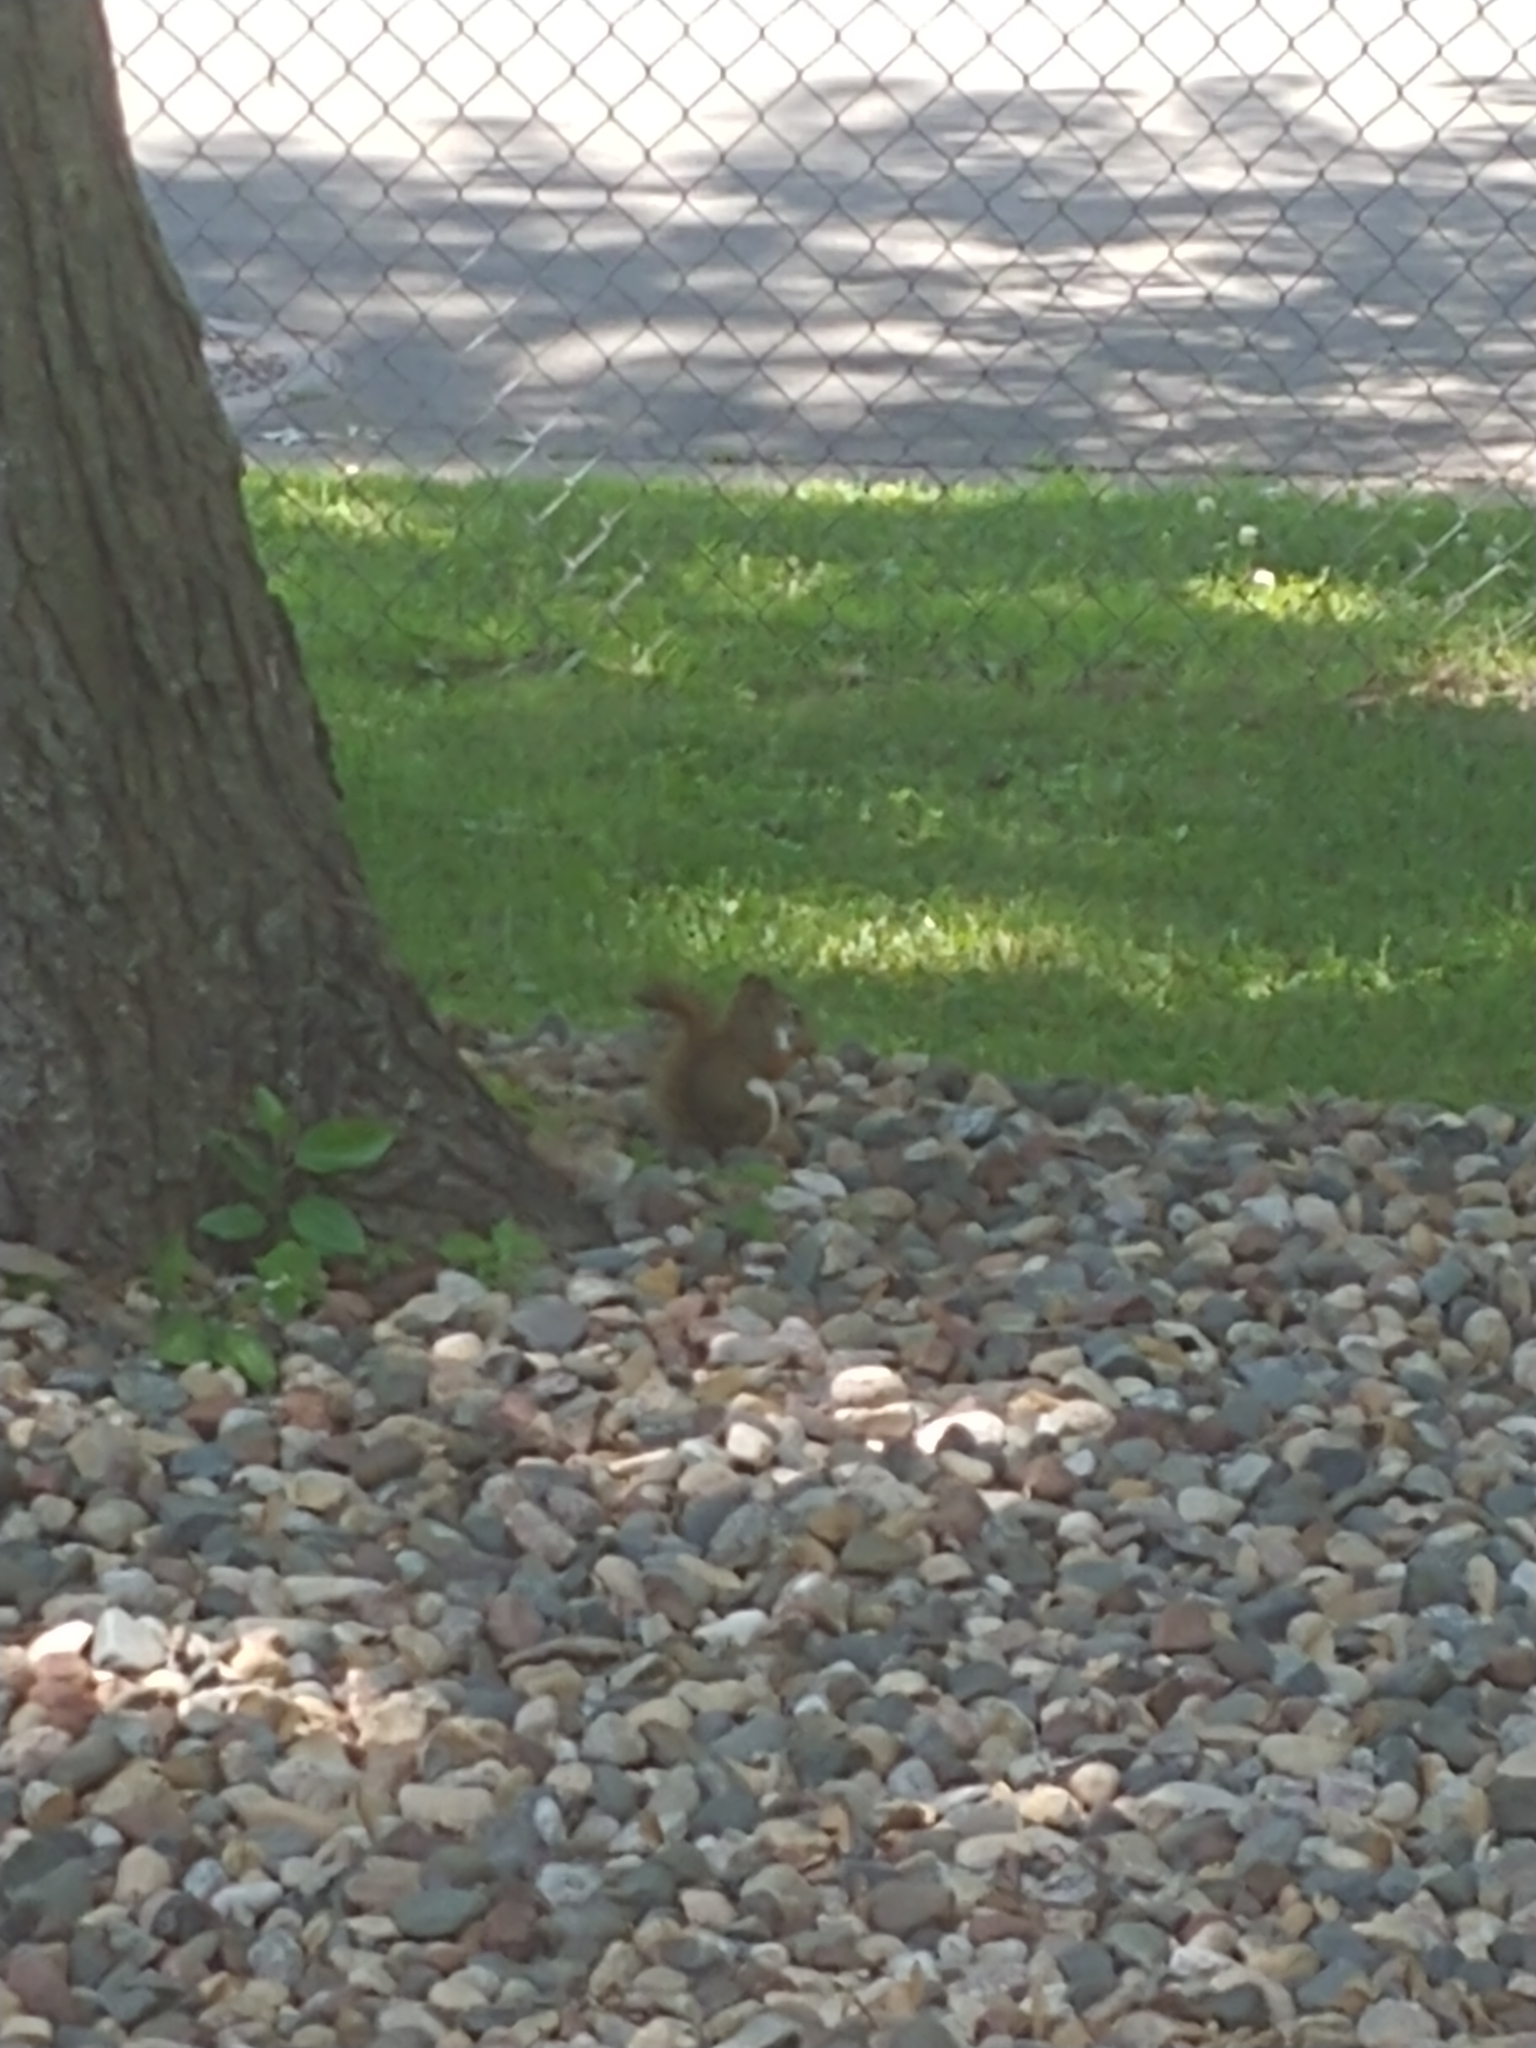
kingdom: Animalia
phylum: Chordata
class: Mammalia
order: Rodentia
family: Sciuridae
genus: Tamiasciurus
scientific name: Tamiasciurus hudsonicus
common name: Red squirrel
